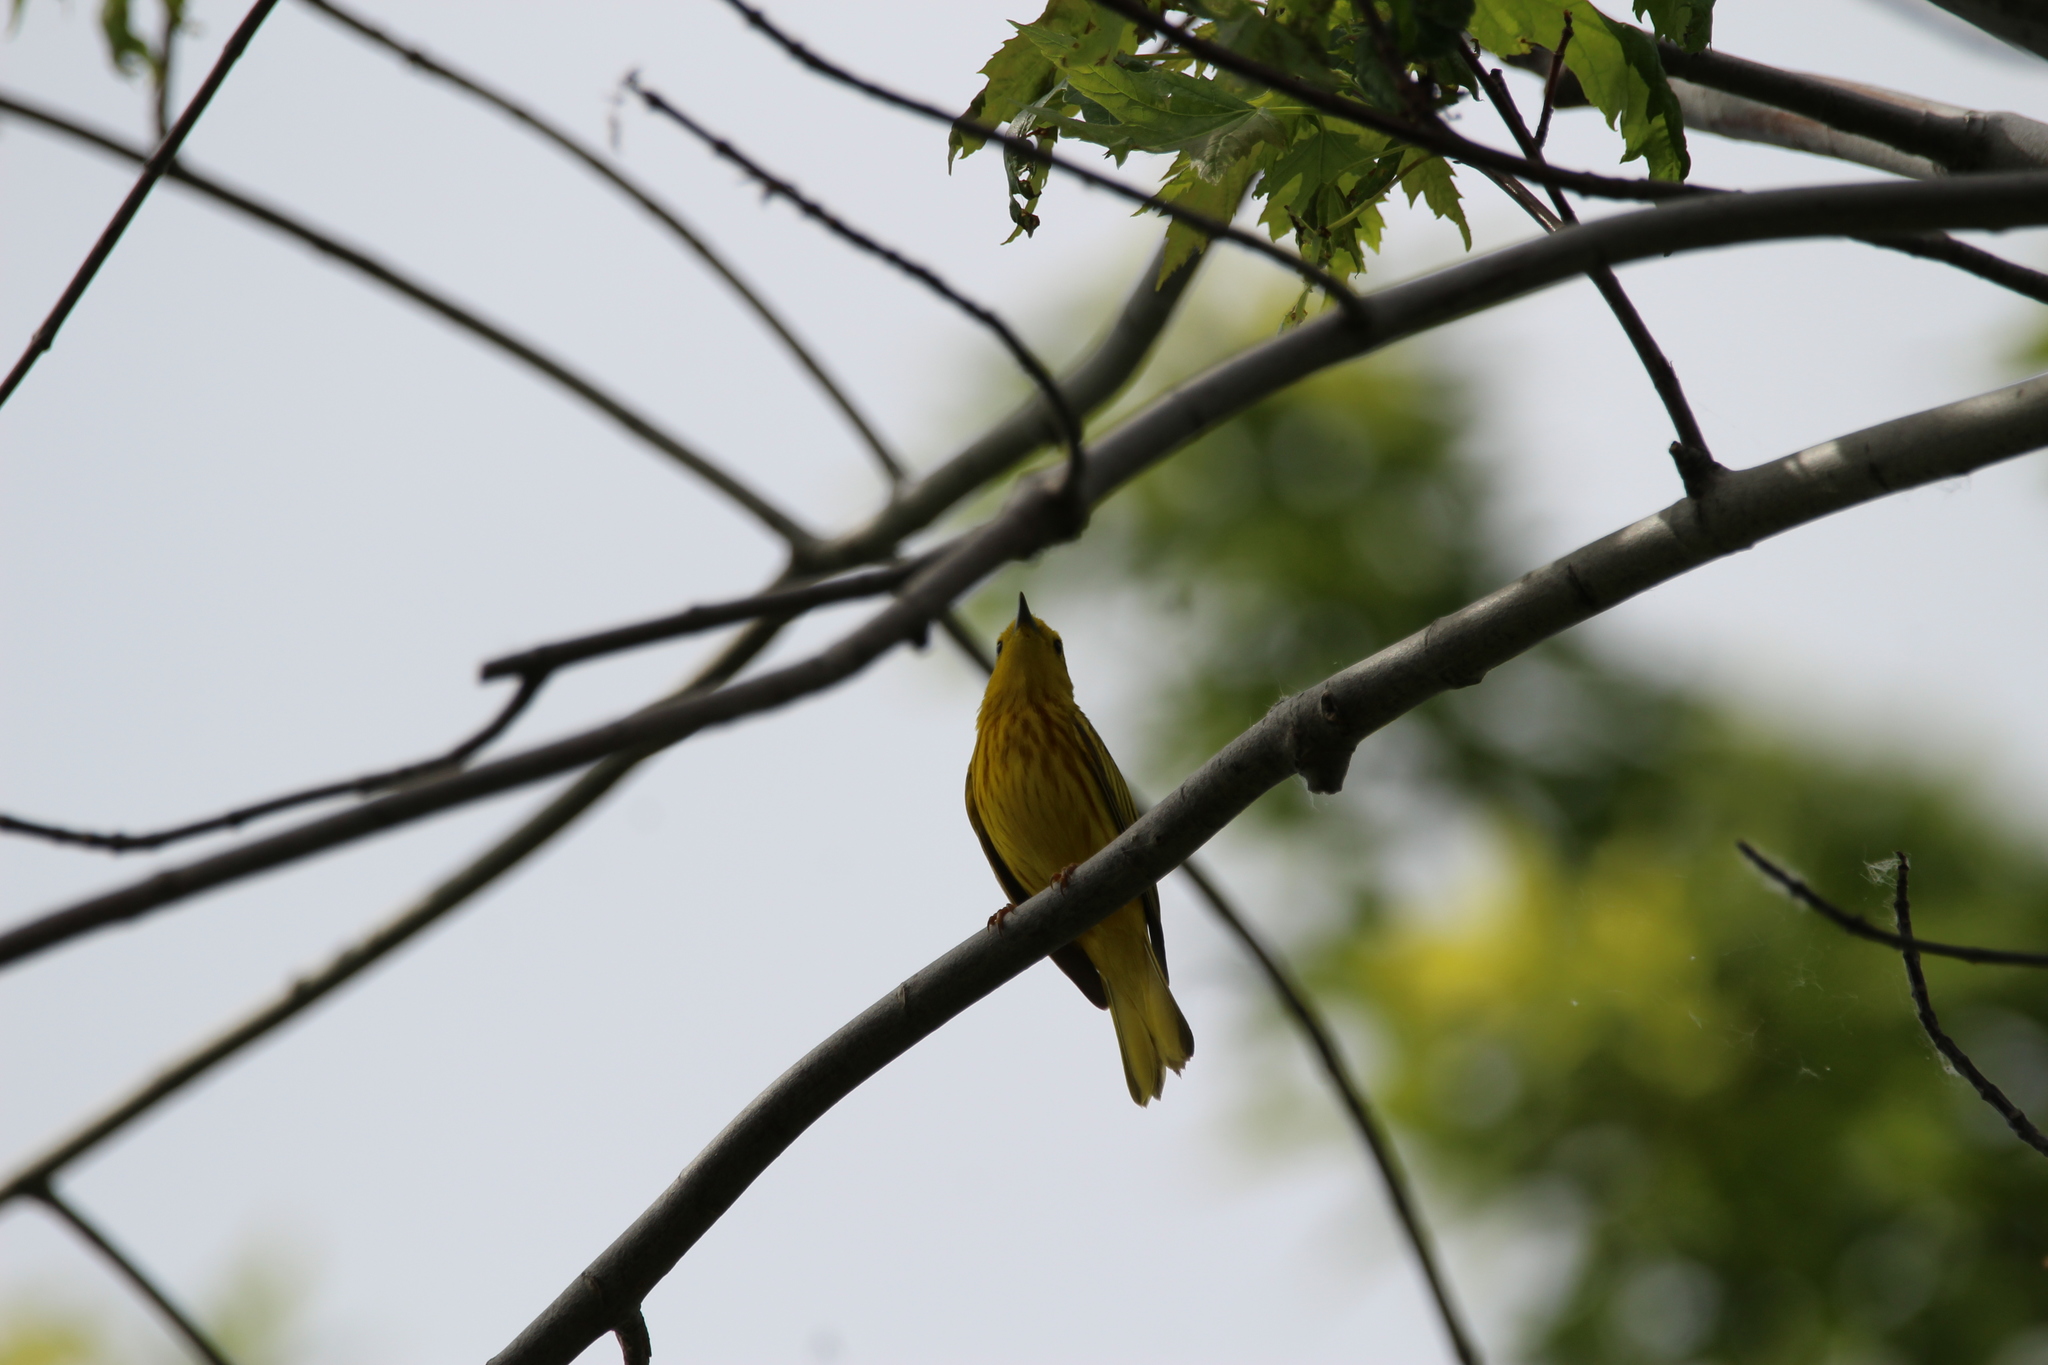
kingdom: Animalia
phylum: Chordata
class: Aves
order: Passeriformes
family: Parulidae
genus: Setophaga
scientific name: Setophaga petechia
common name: Yellow warbler
